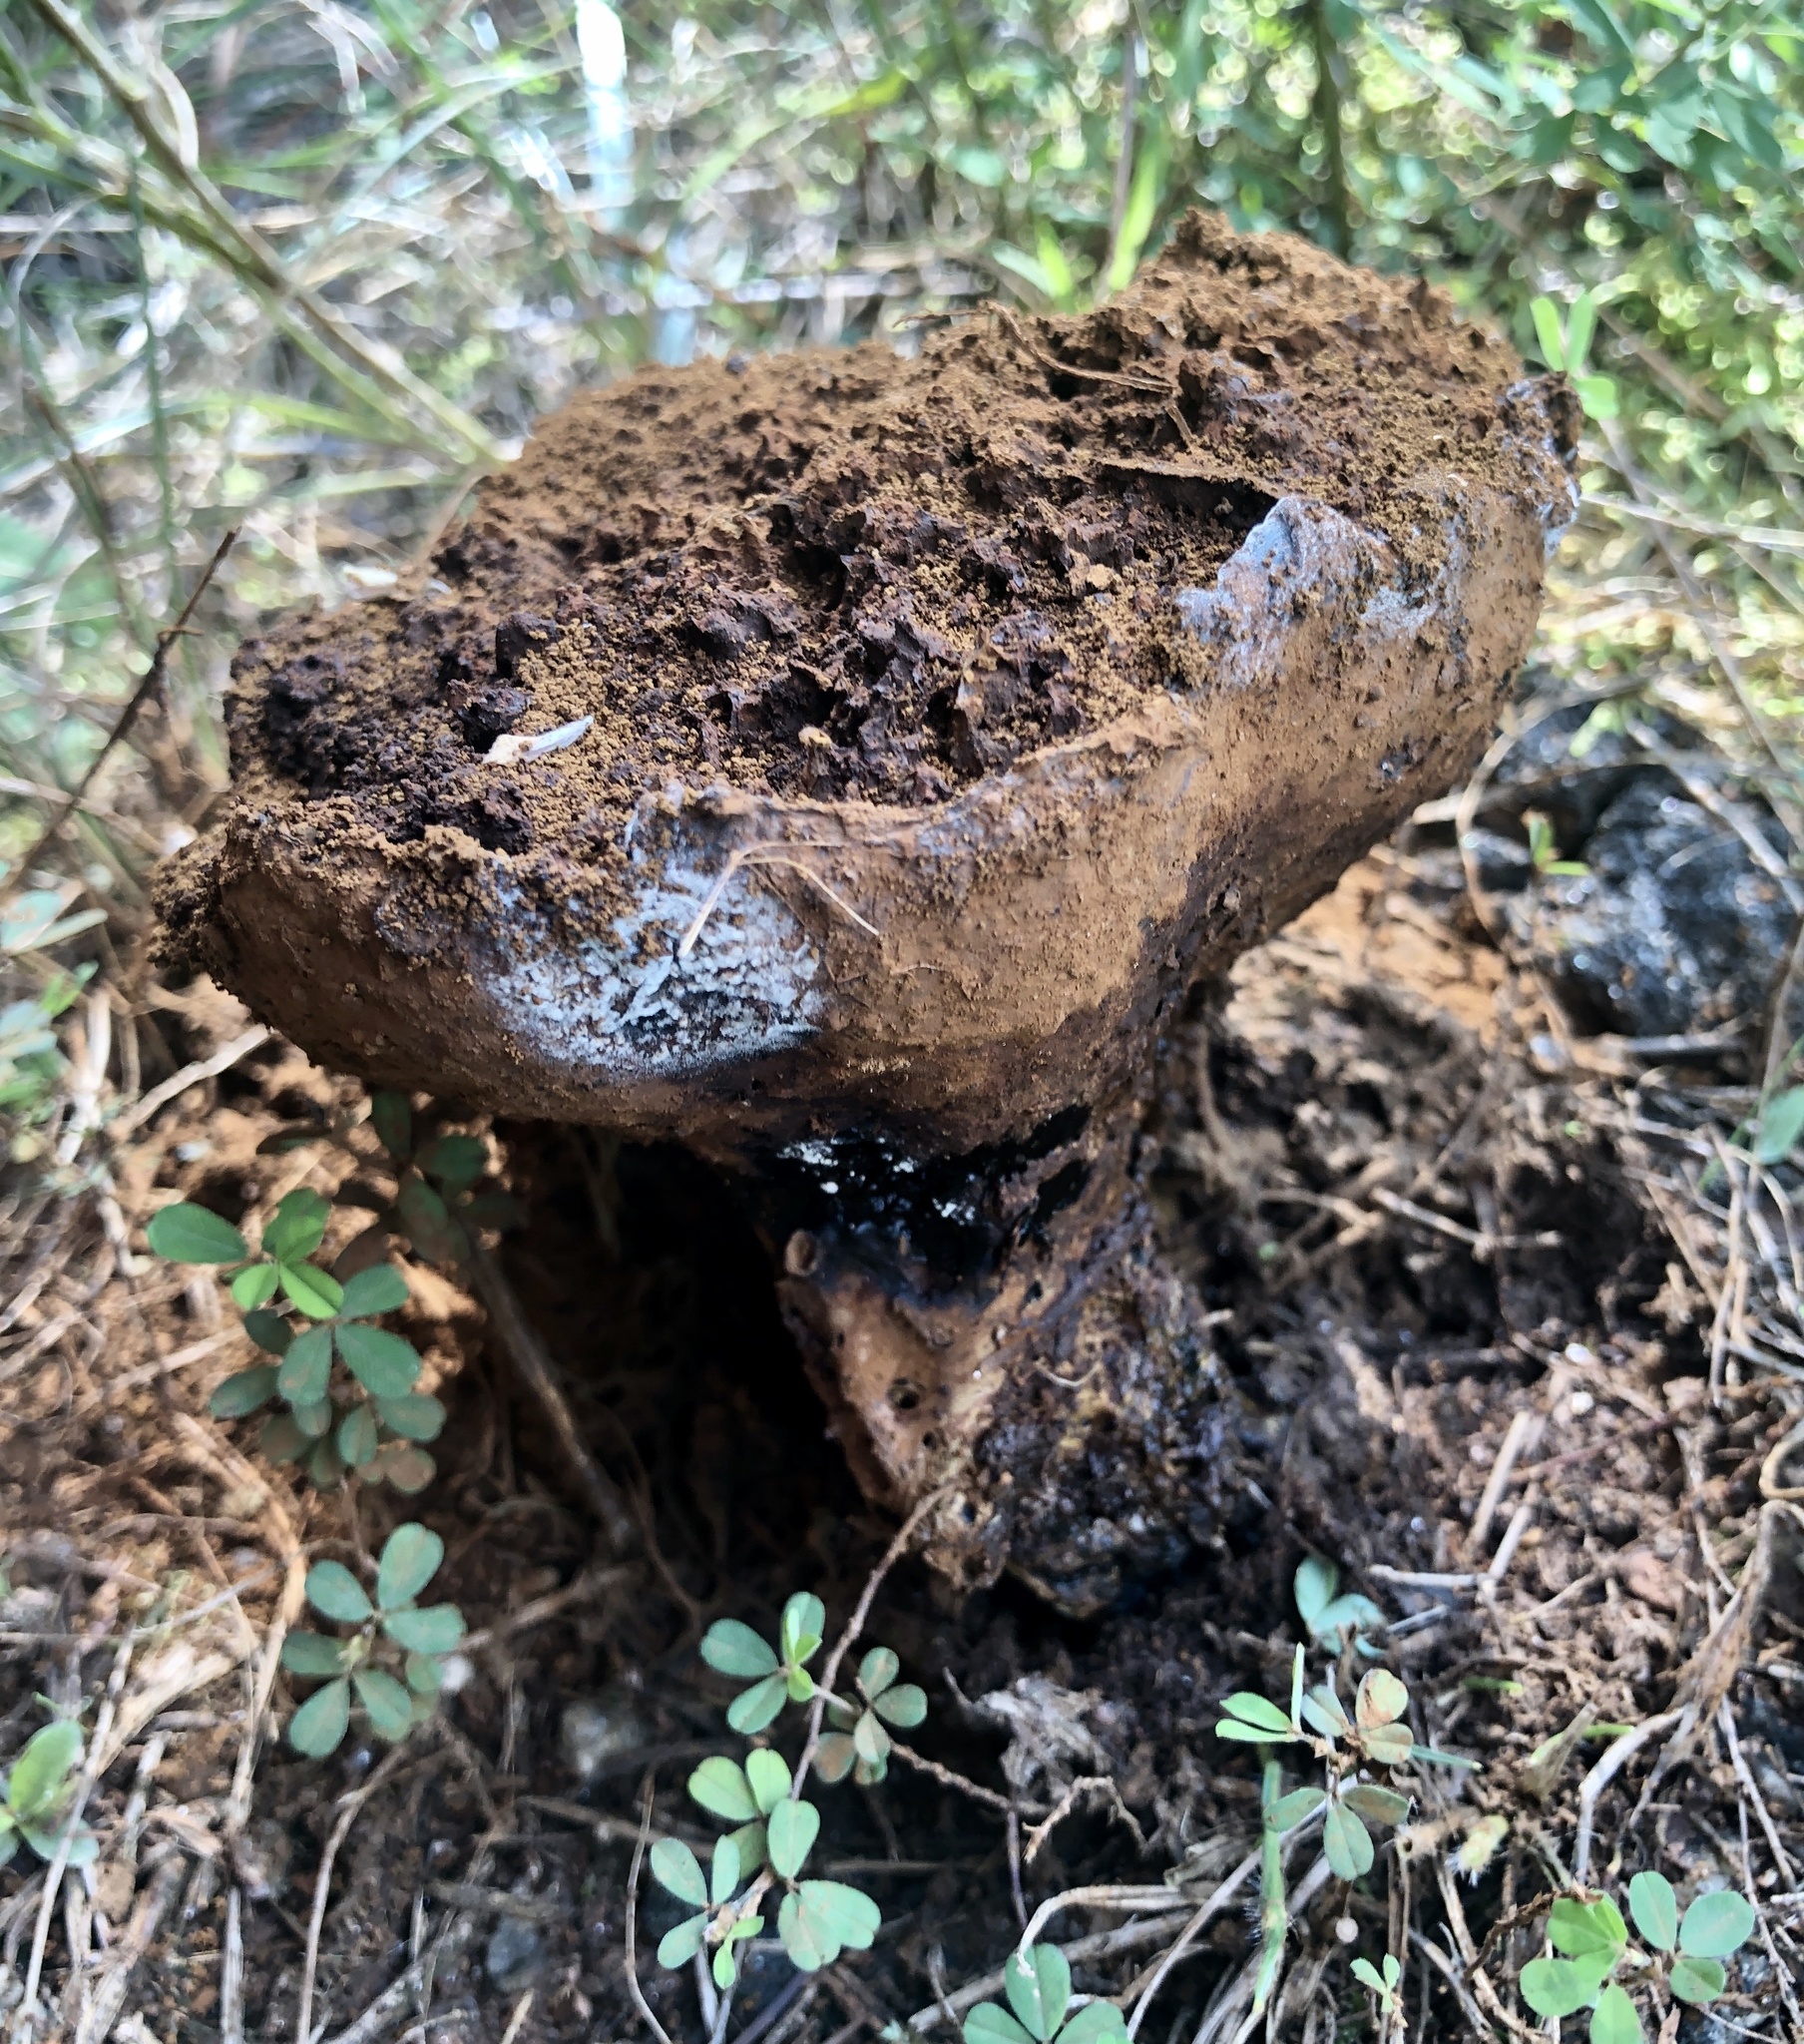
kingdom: Fungi
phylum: Basidiomycota
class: Agaricomycetes
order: Boletales
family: Sclerodermataceae
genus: Pisolithus
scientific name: Pisolithus tinctorius
